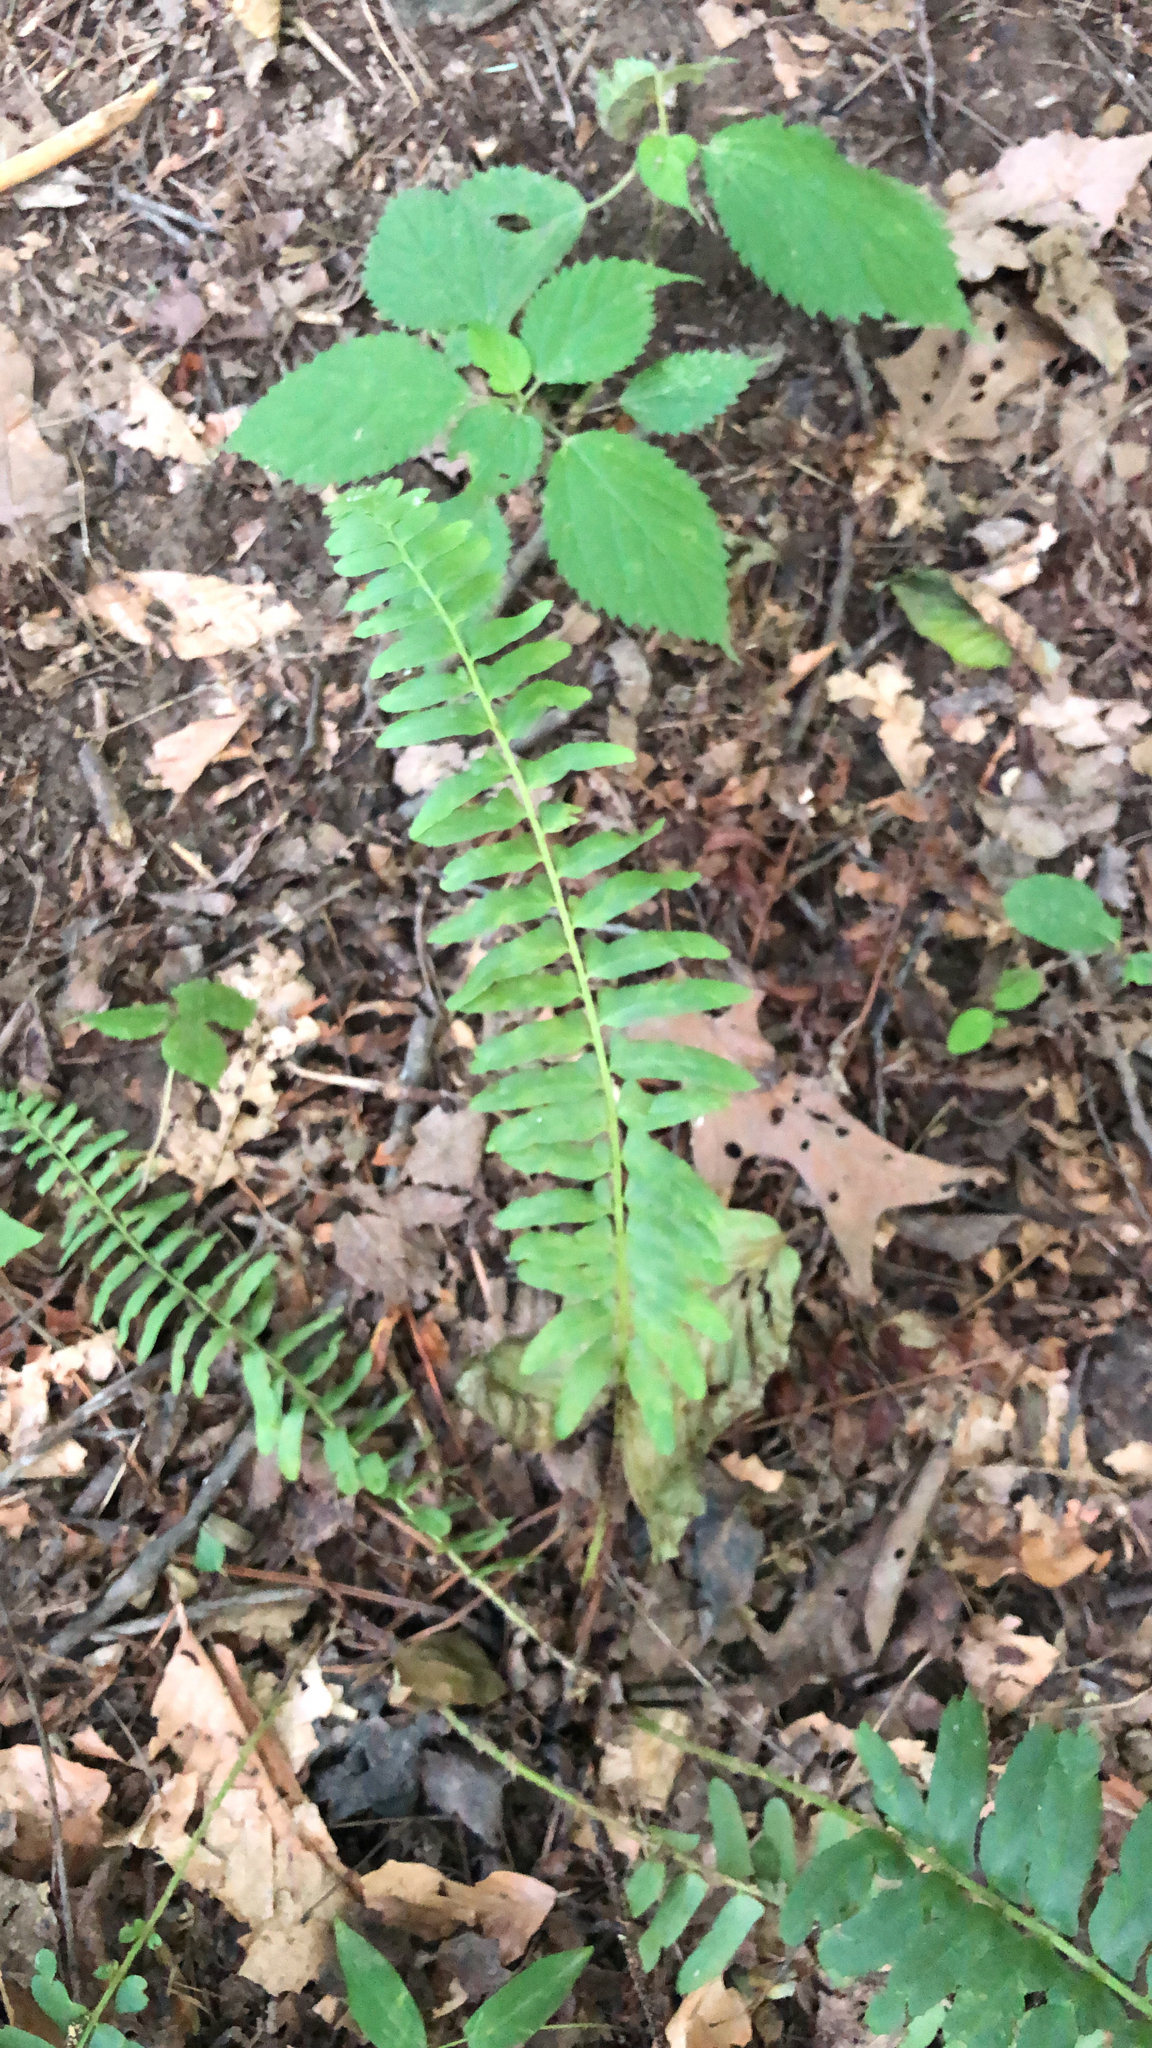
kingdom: Plantae
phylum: Tracheophyta
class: Polypodiopsida
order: Polypodiales
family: Dryopteridaceae
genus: Polystichum
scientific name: Polystichum acrostichoides
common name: Christmas fern
